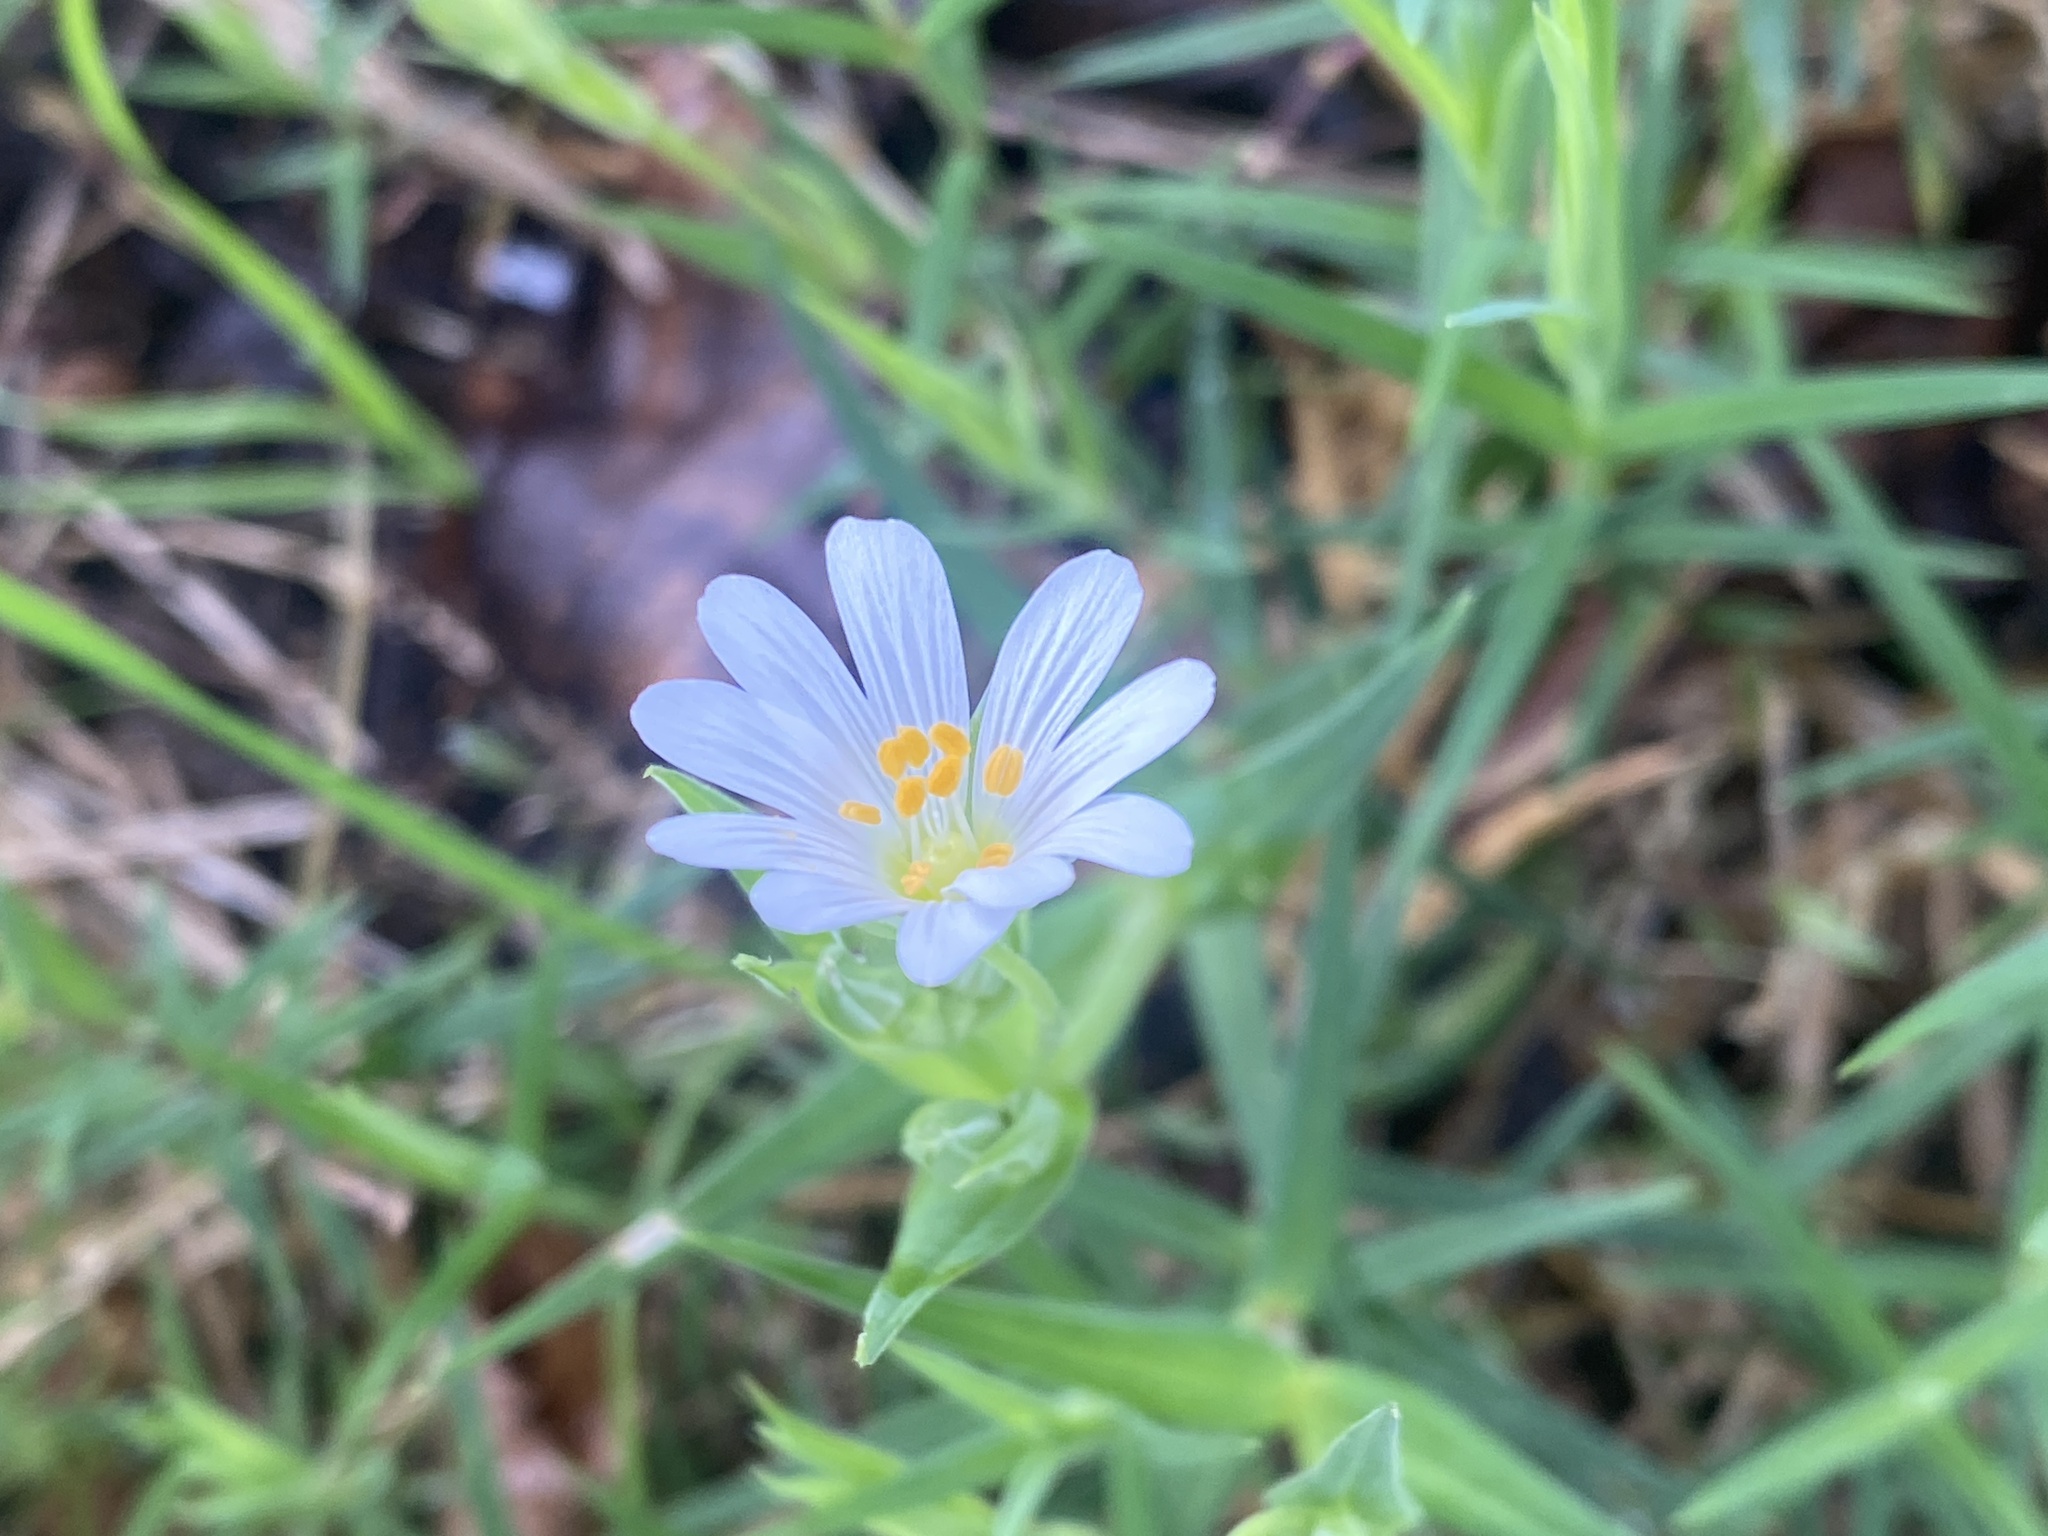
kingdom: Plantae
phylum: Tracheophyta
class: Magnoliopsida
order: Caryophyllales
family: Caryophyllaceae
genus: Rabelera
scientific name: Rabelera holostea
